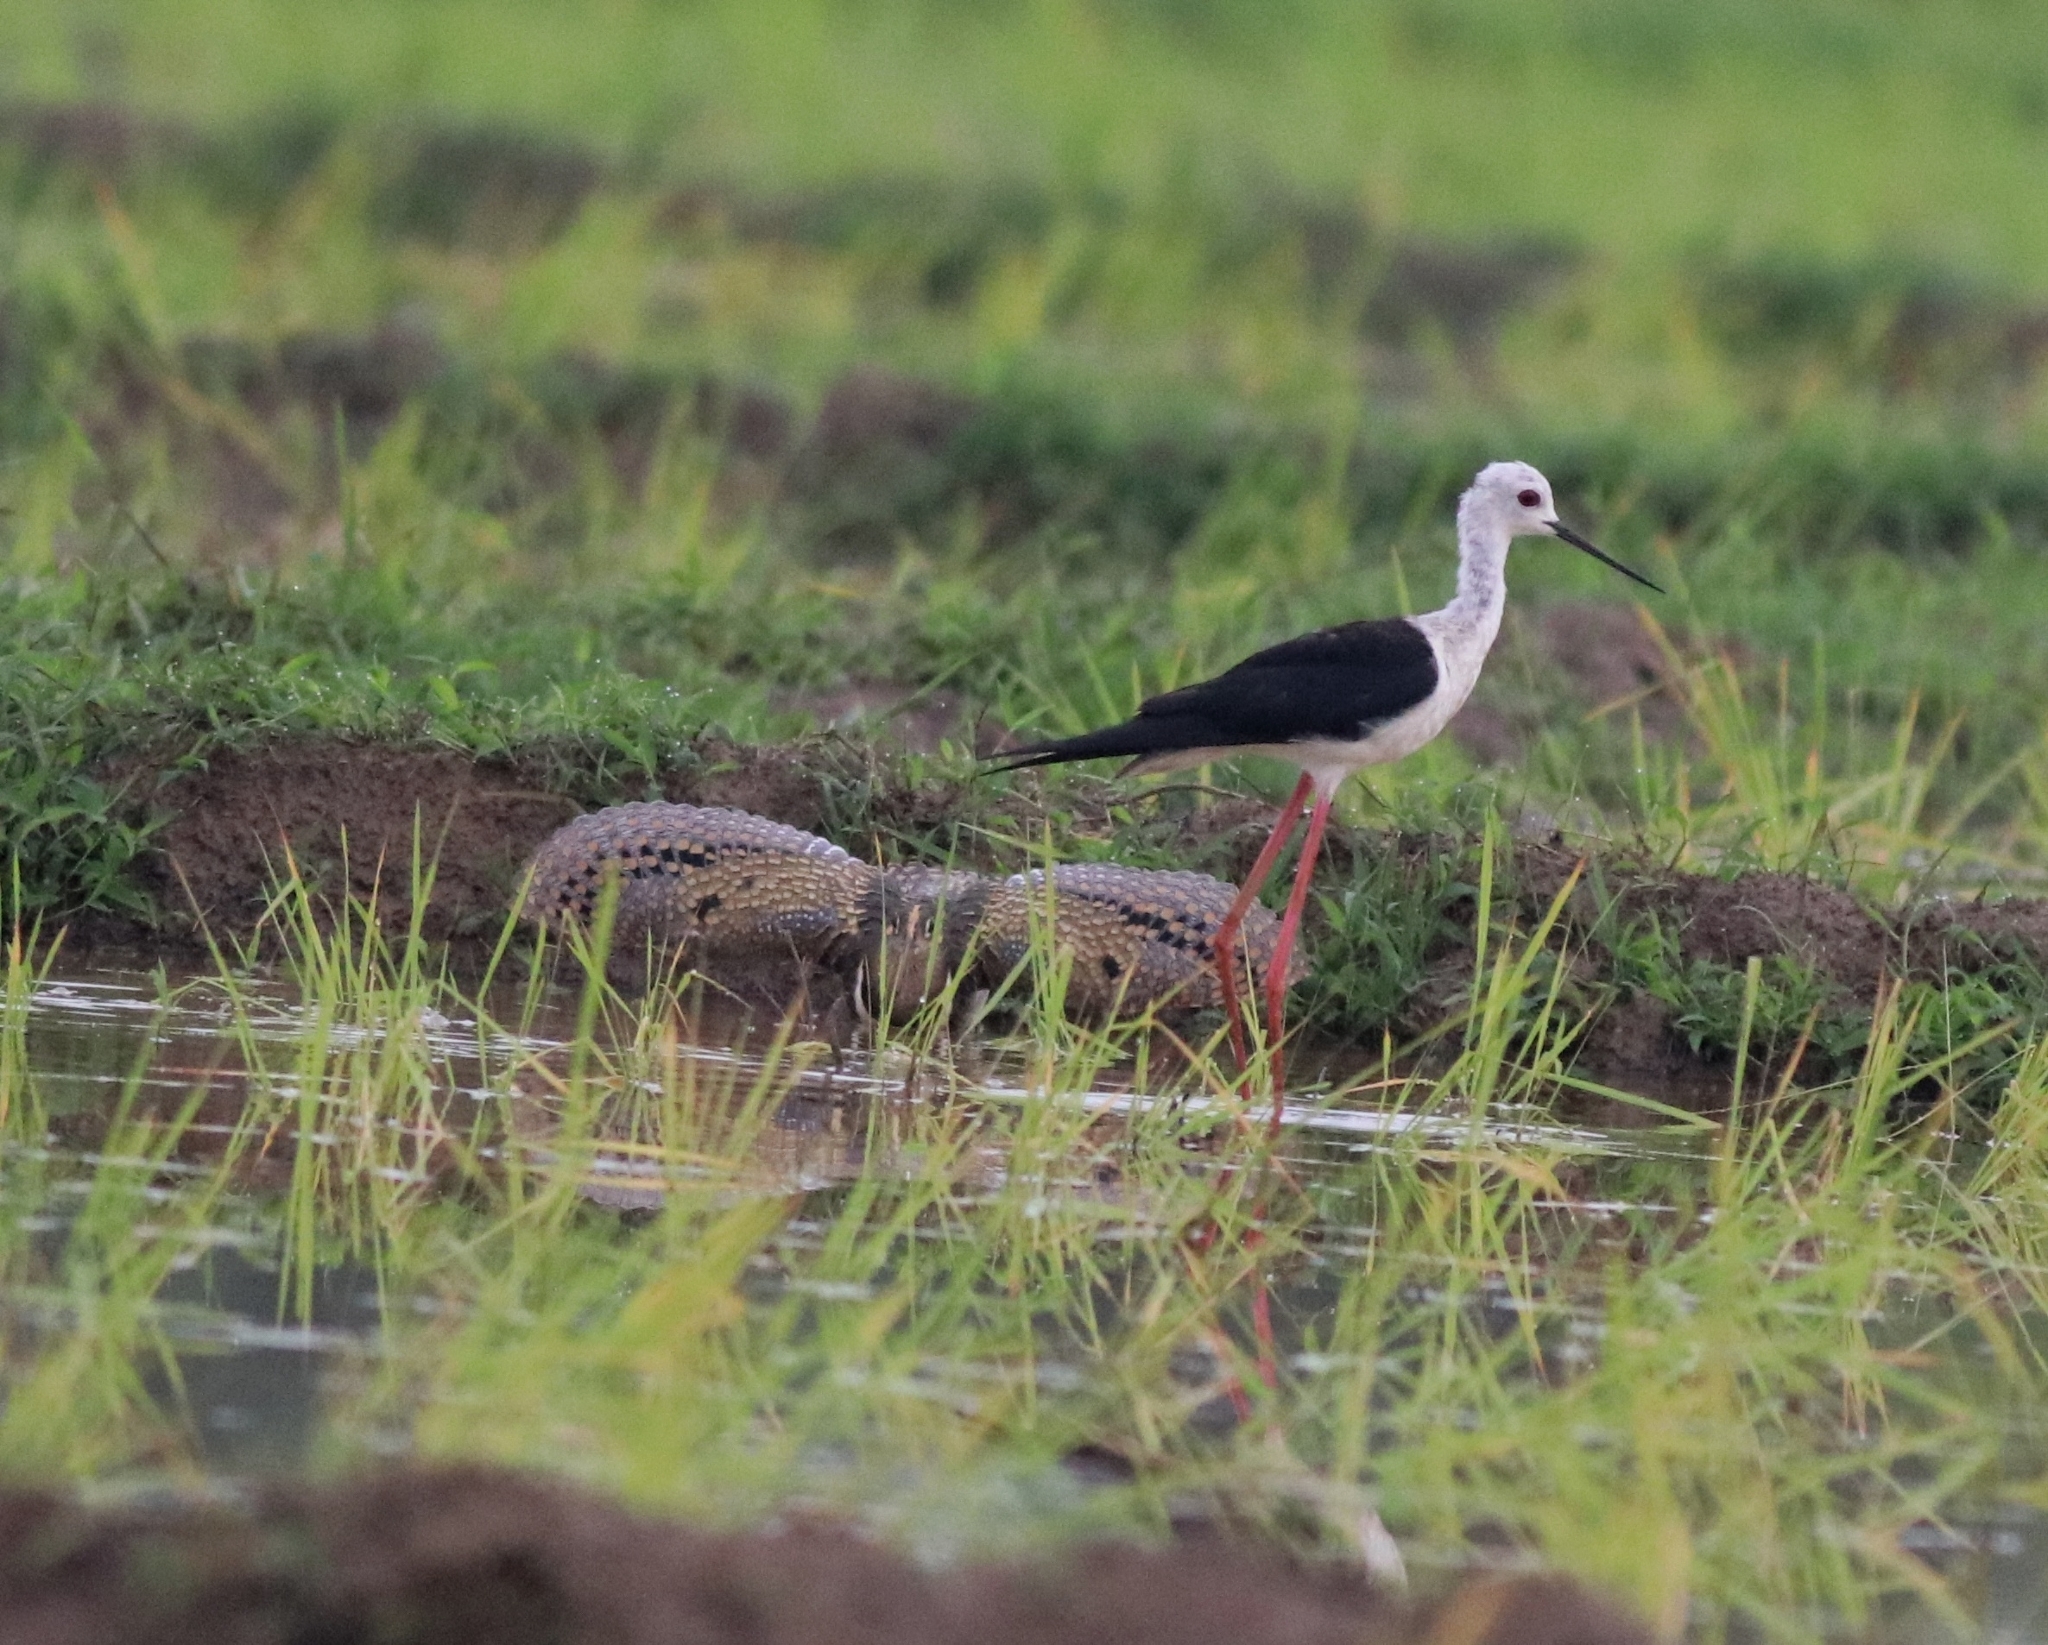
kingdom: Animalia
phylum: Chordata
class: Aves
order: Charadriiformes
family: Recurvirostridae
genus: Himantopus
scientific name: Himantopus himantopus
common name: Black-winged stilt
